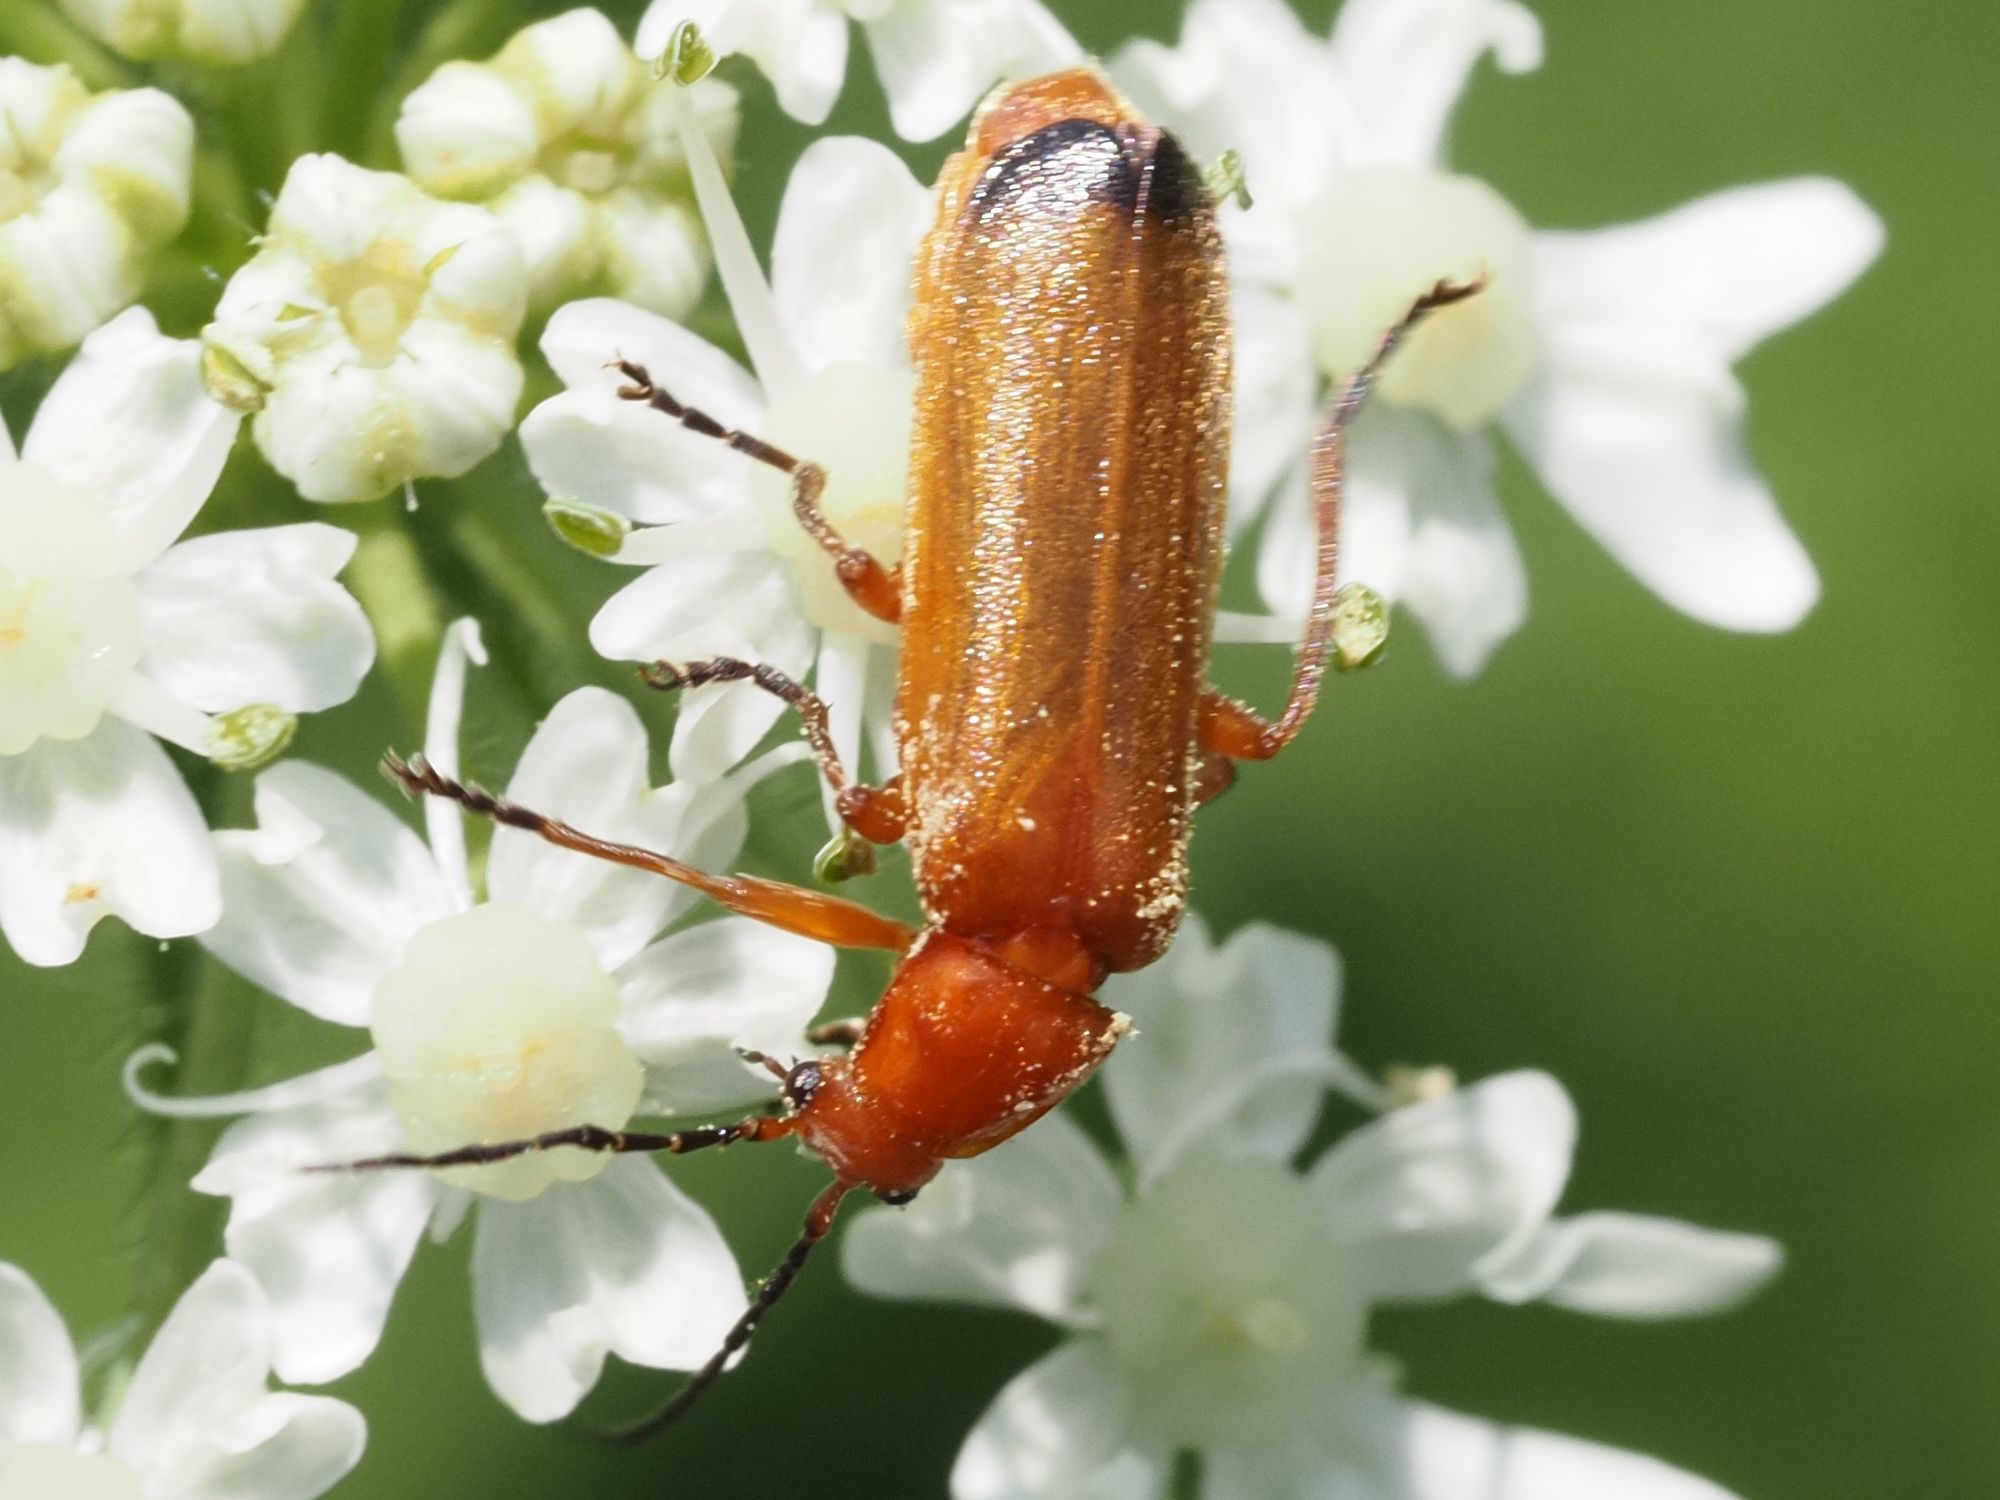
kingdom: Animalia
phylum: Arthropoda
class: Insecta
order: Coleoptera
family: Cantharidae
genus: Rhagonycha
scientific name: Rhagonycha fulva
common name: Common red soldier beetle
